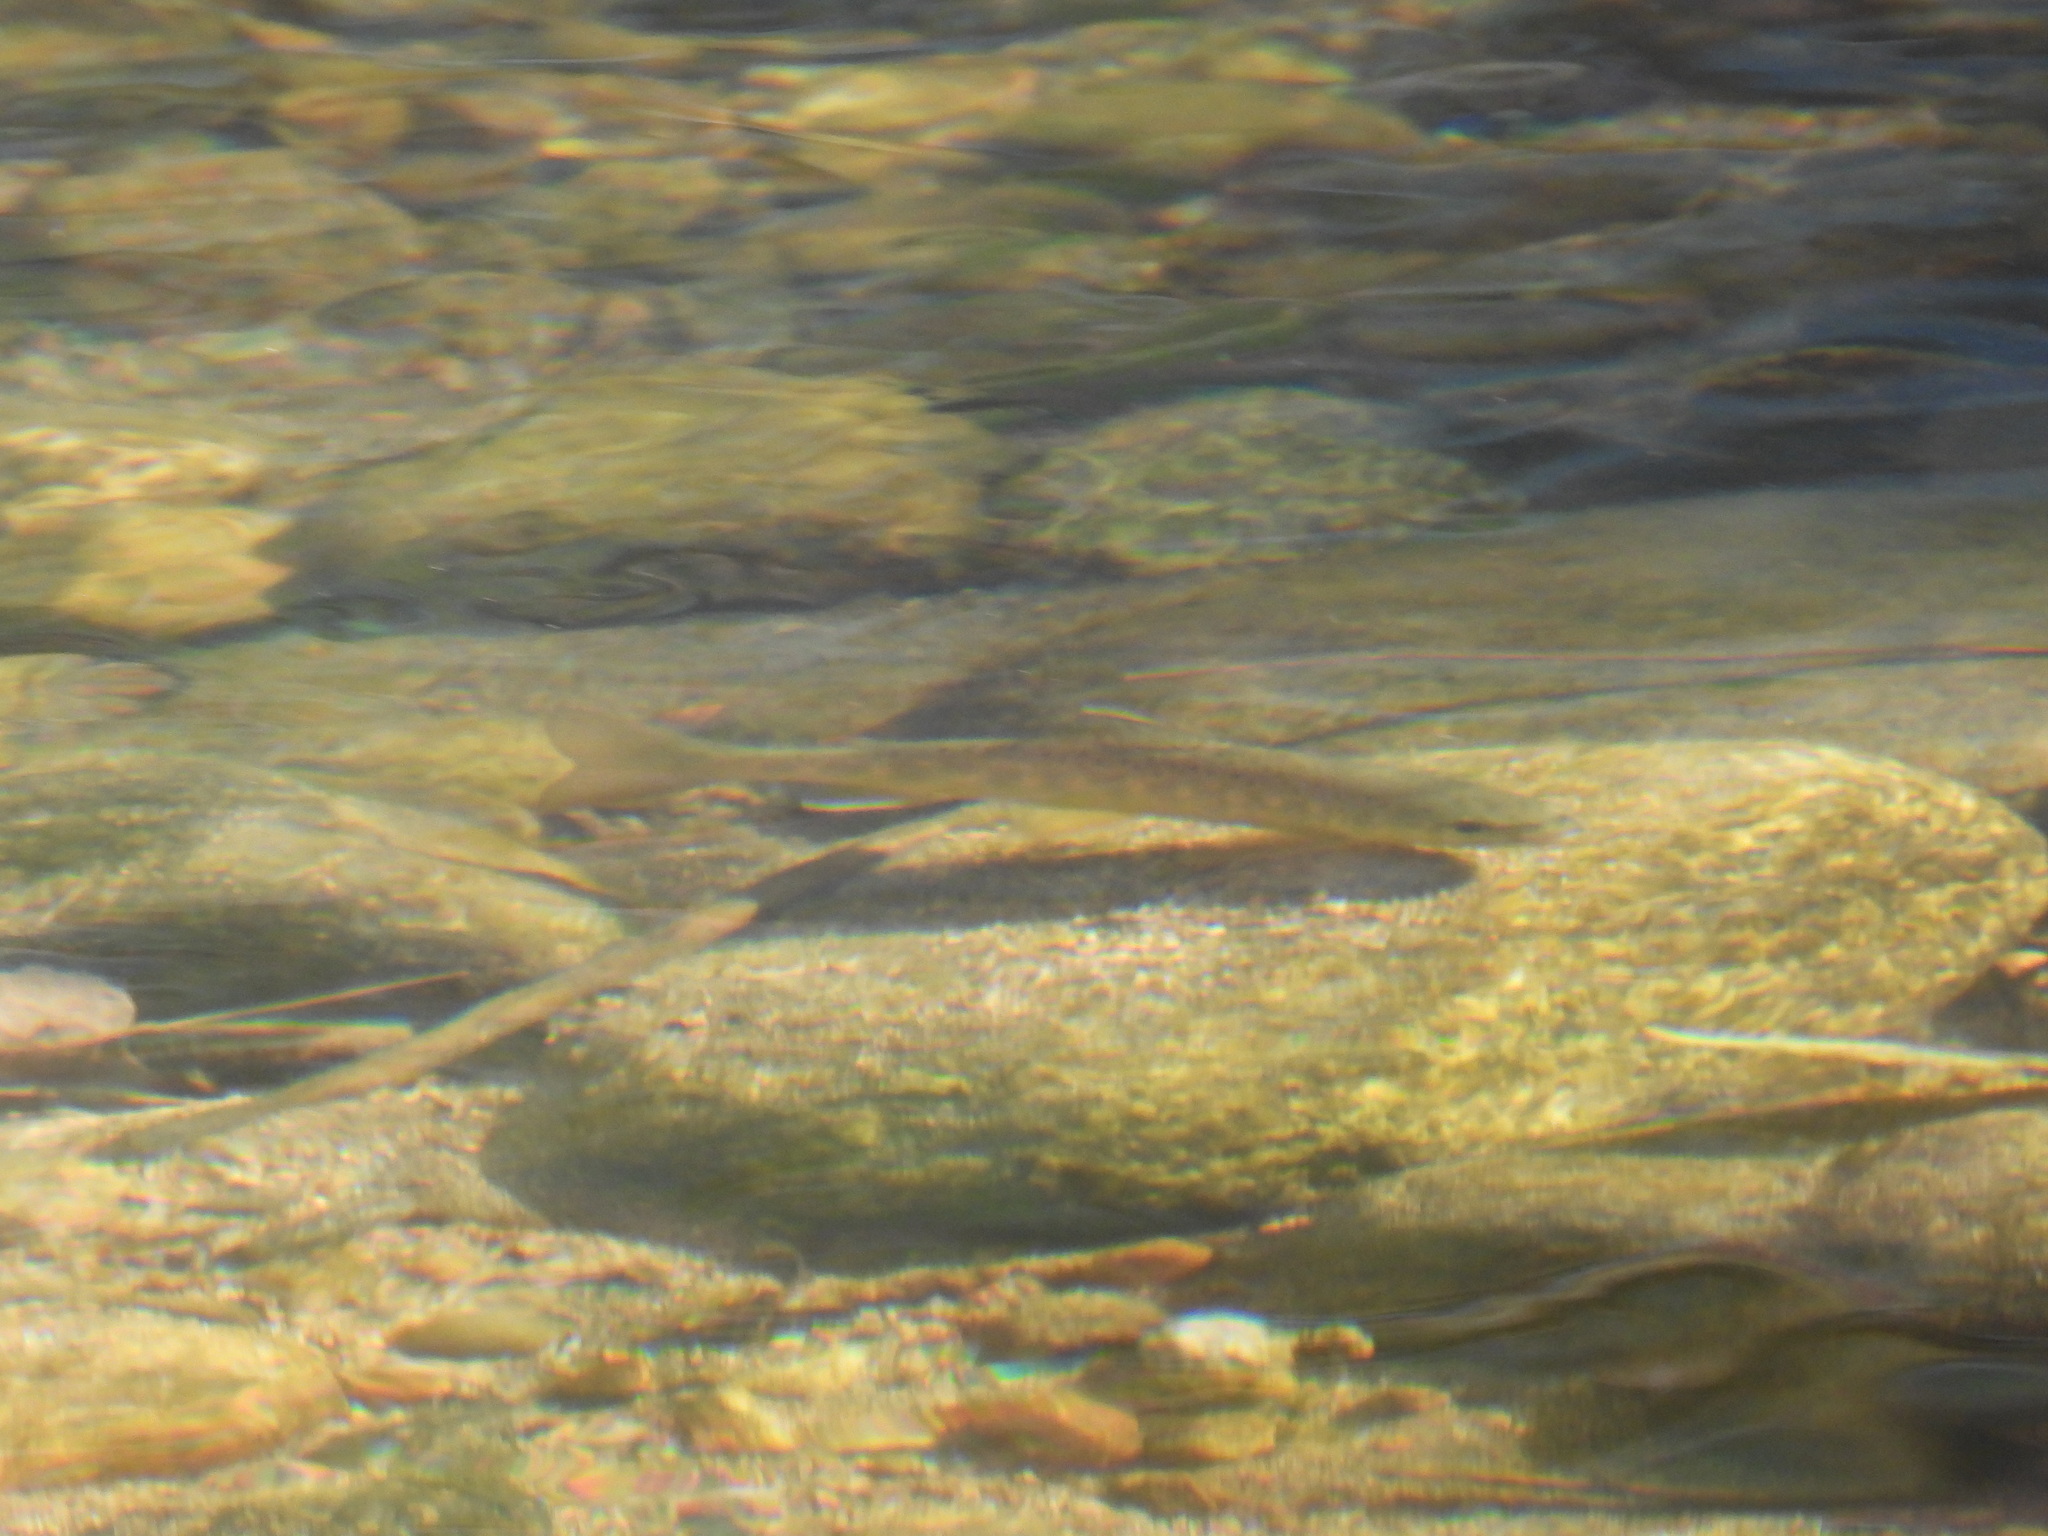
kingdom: Animalia
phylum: Chordata
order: Salmoniformes
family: Salmonidae
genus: Salmo
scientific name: Salmo trutta
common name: Brown trout
